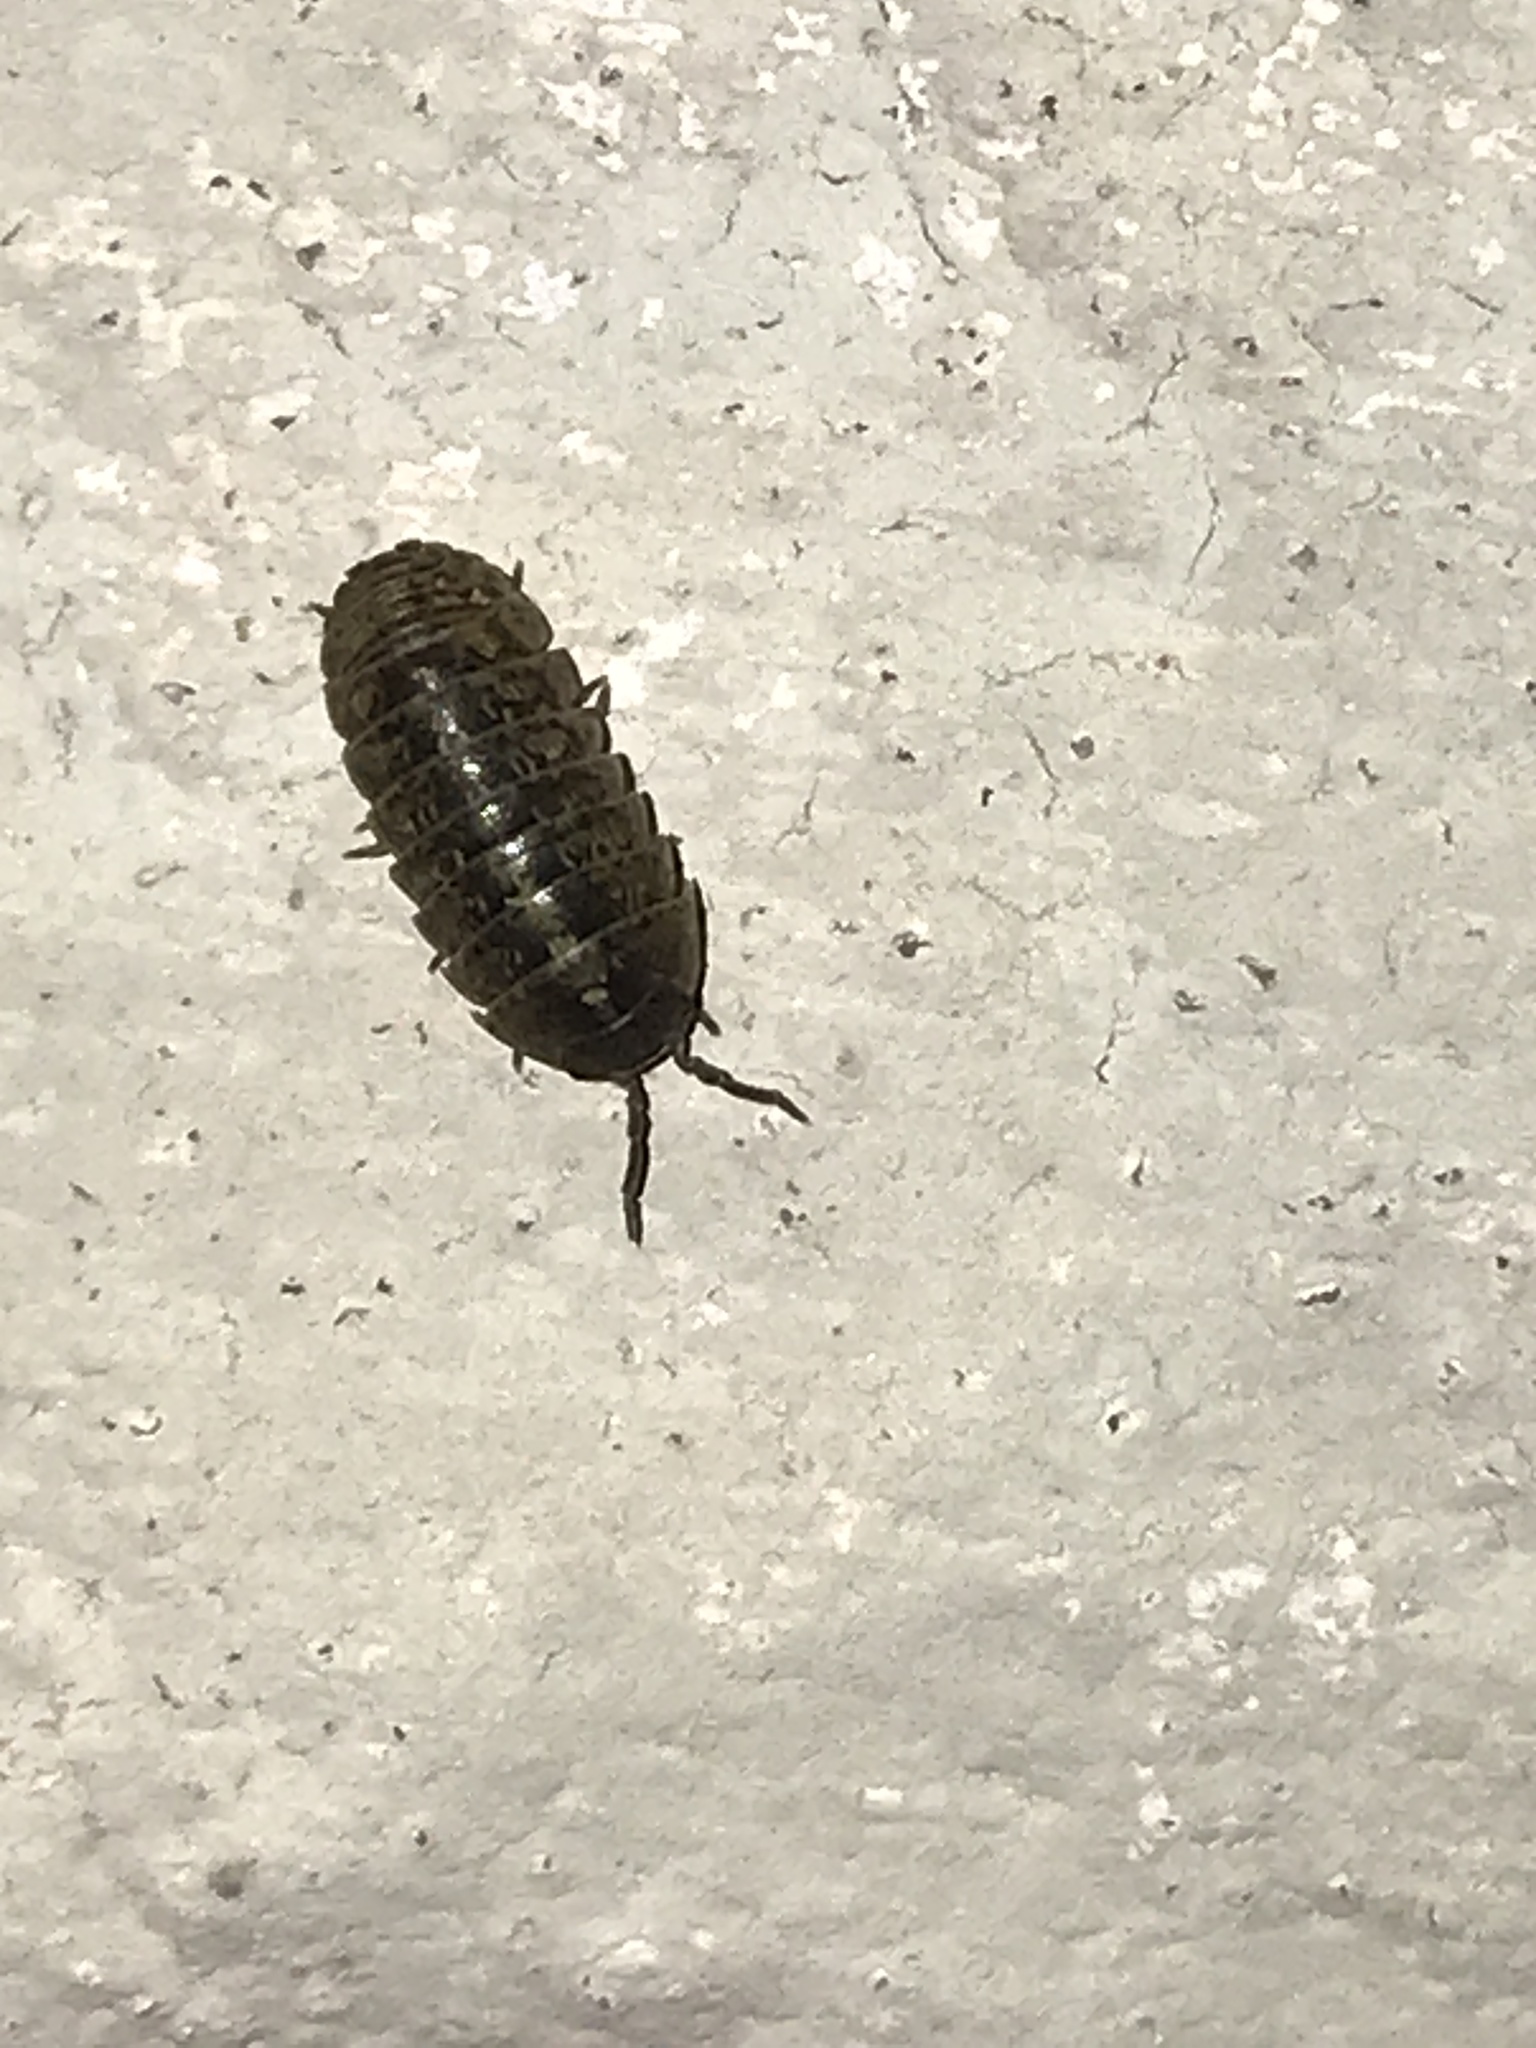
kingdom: Animalia
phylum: Arthropoda
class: Malacostraca
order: Isopoda
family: Armadillidiidae
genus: Armadillidium
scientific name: Armadillidium vulgare
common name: Common pill woodlouse
